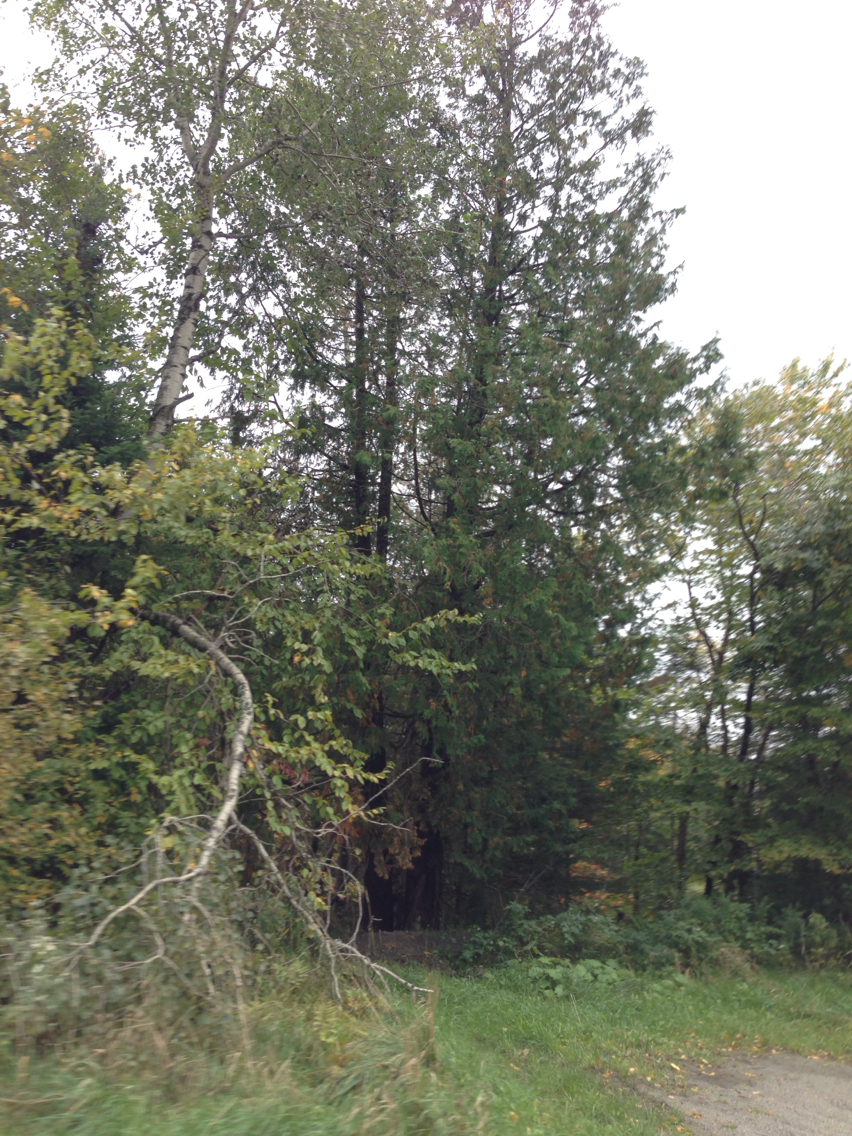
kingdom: Plantae
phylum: Tracheophyta
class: Pinopsida
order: Pinales
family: Cupressaceae
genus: Thuja
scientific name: Thuja occidentalis
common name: Northern white-cedar
